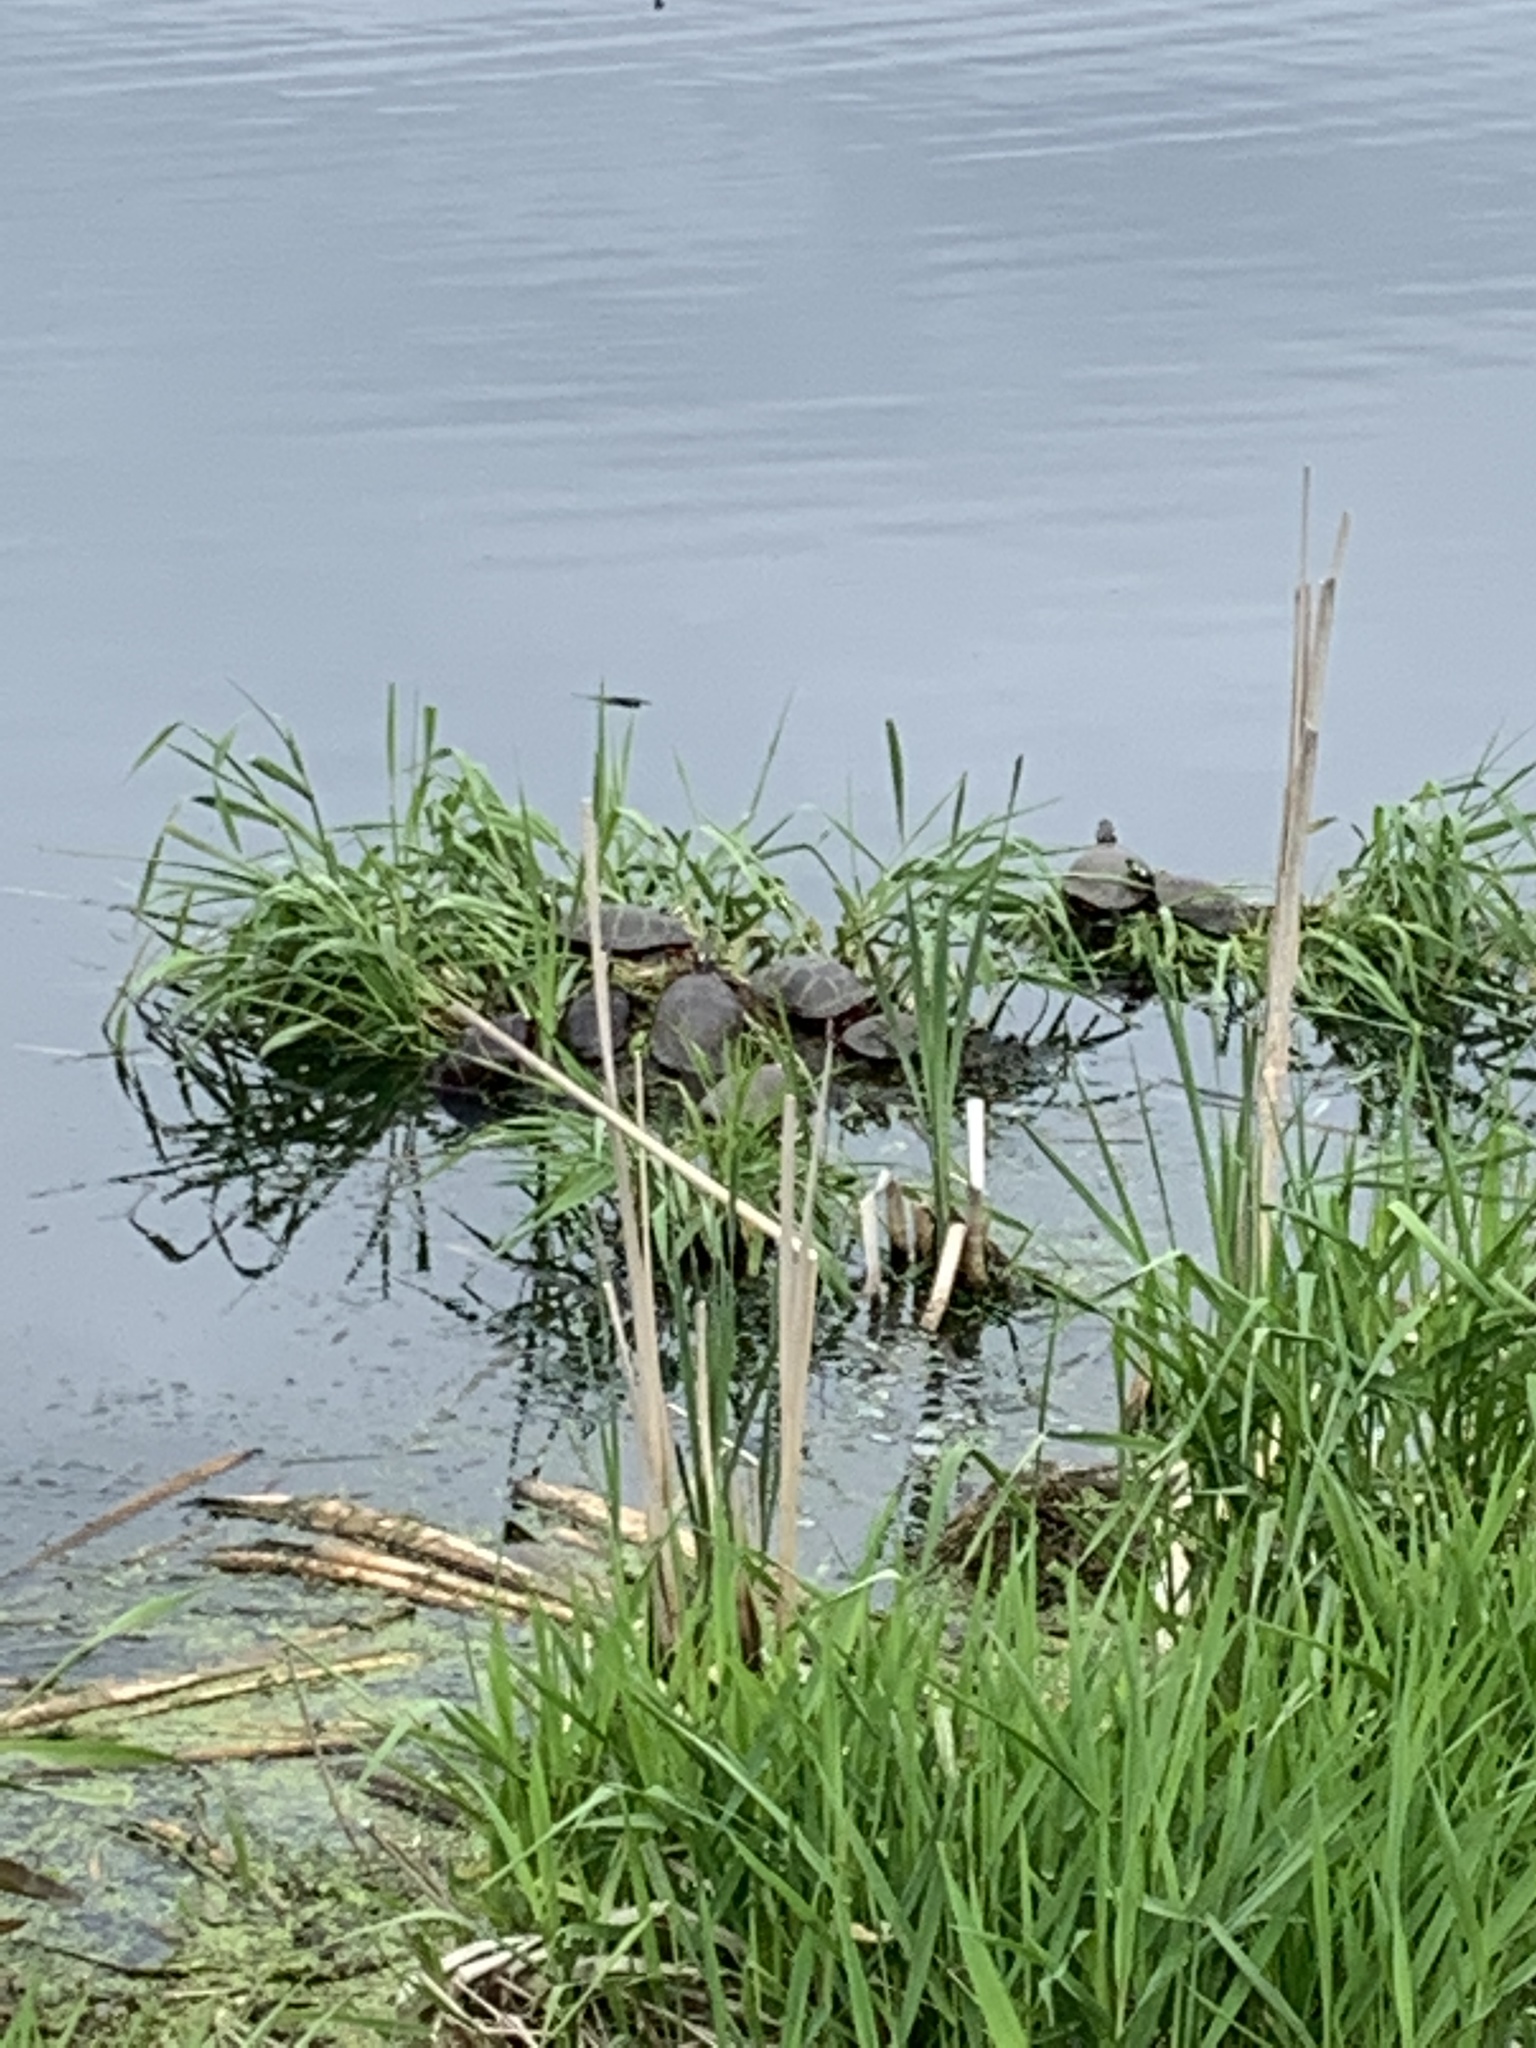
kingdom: Animalia
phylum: Chordata
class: Testudines
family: Emydidae
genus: Chrysemys
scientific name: Chrysemys picta
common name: Painted turtle
